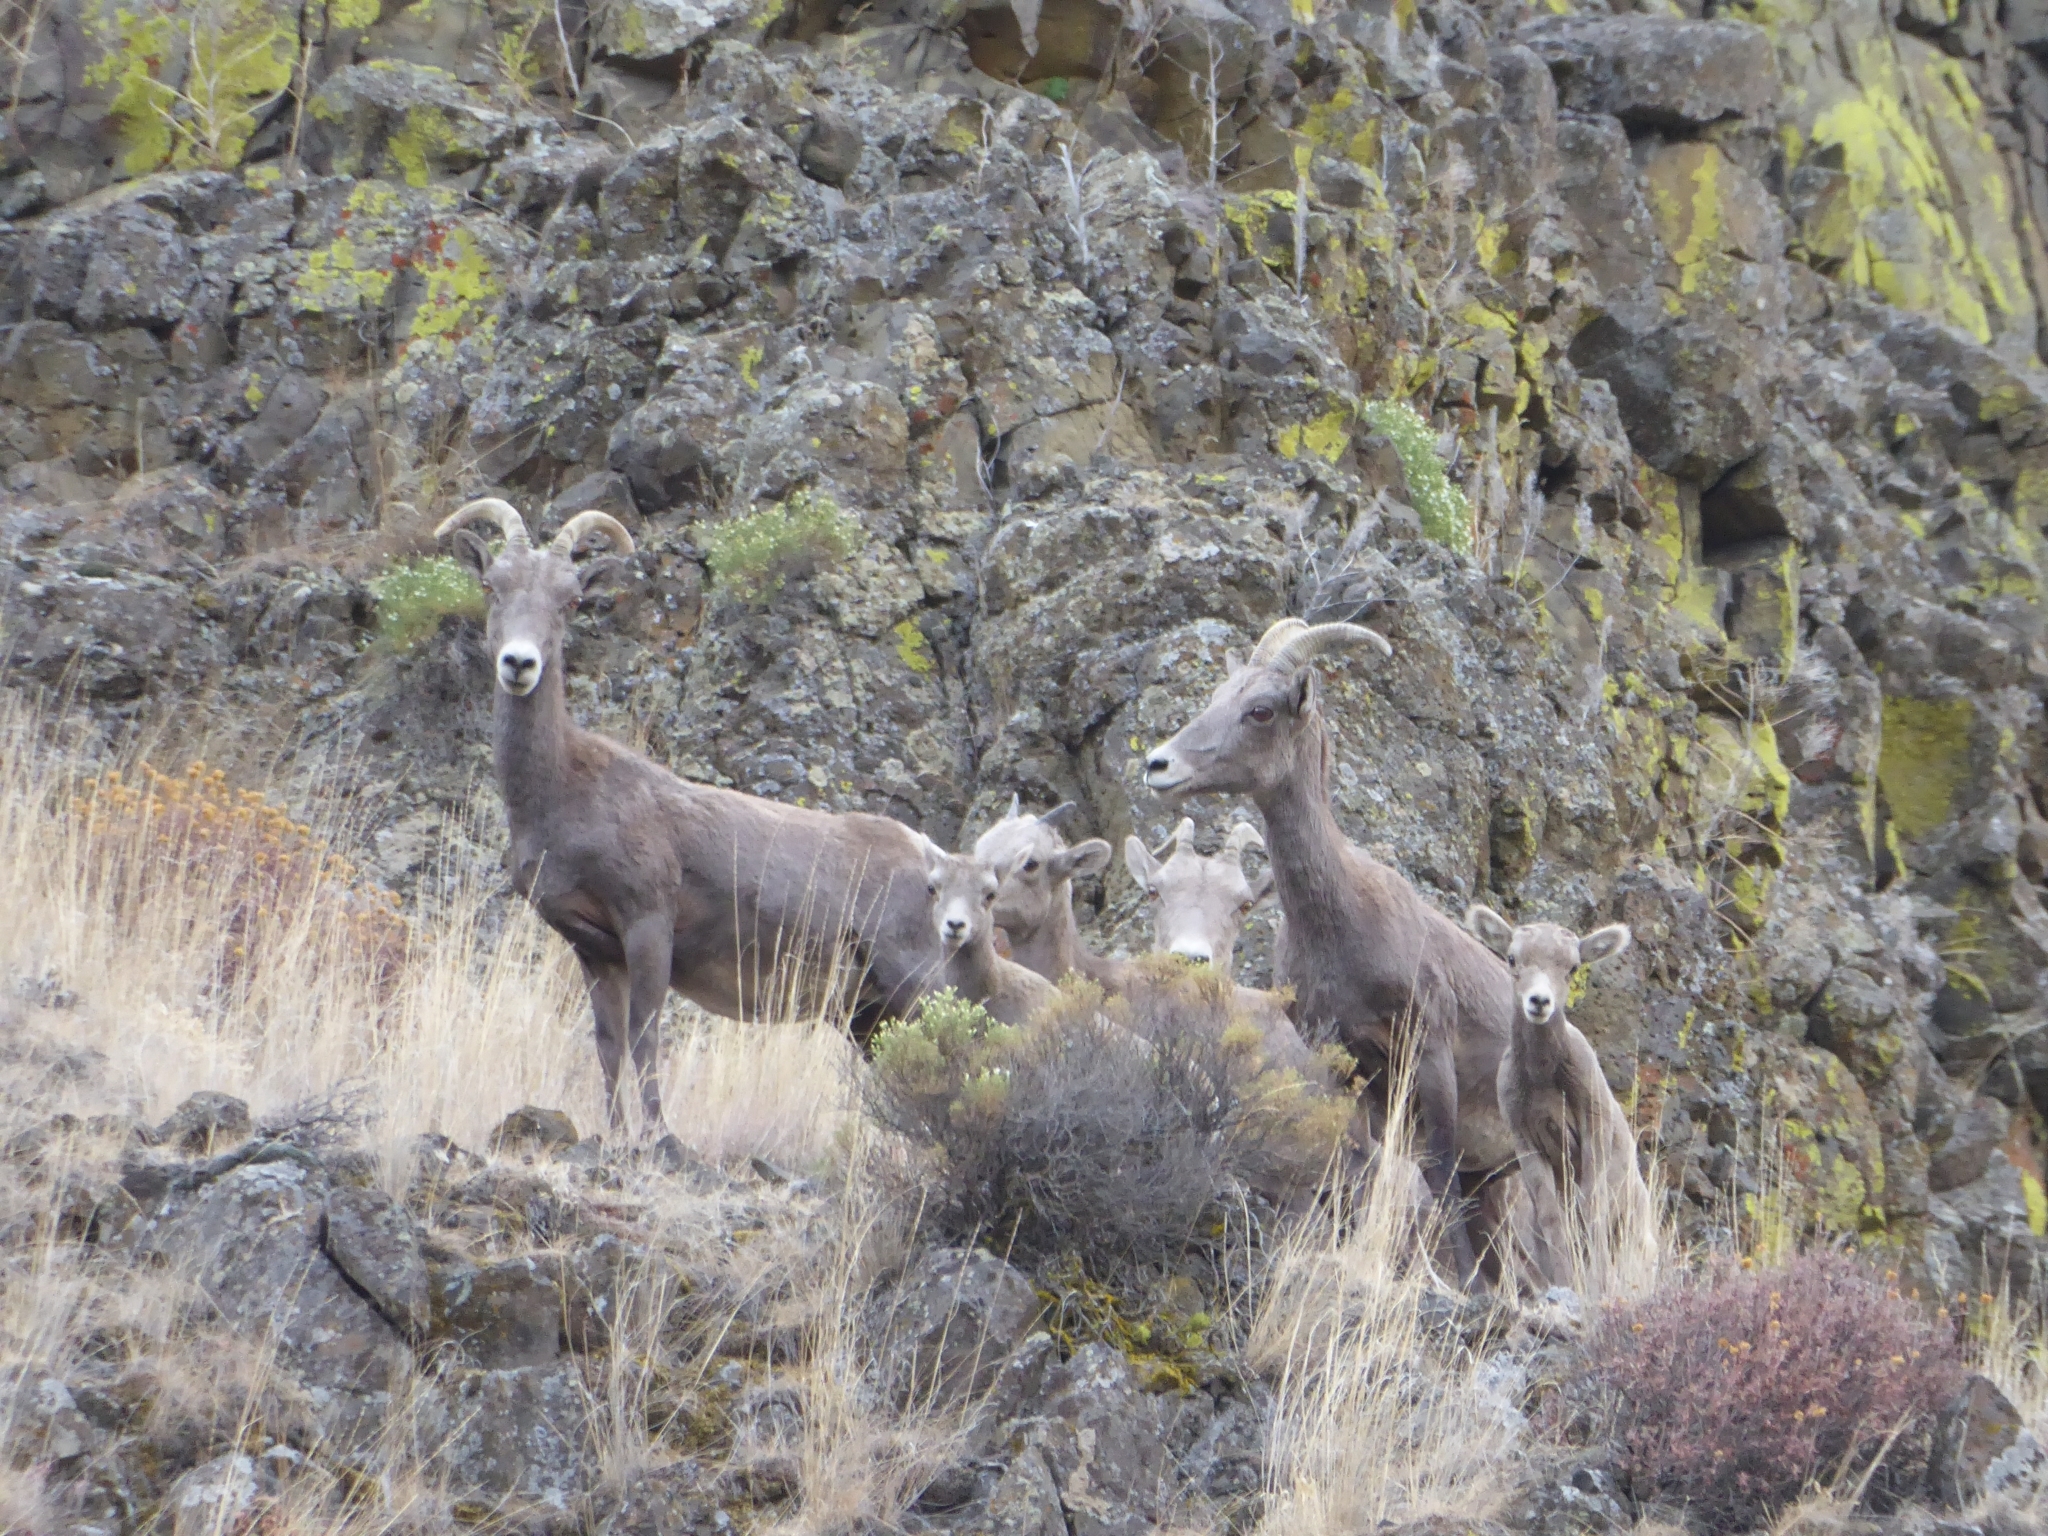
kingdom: Animalia
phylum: Chordata
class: Mammalia
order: Artiodactyla
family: Bovidae
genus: Ovis
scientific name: Ovis canadensis
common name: Bighorn sheep
